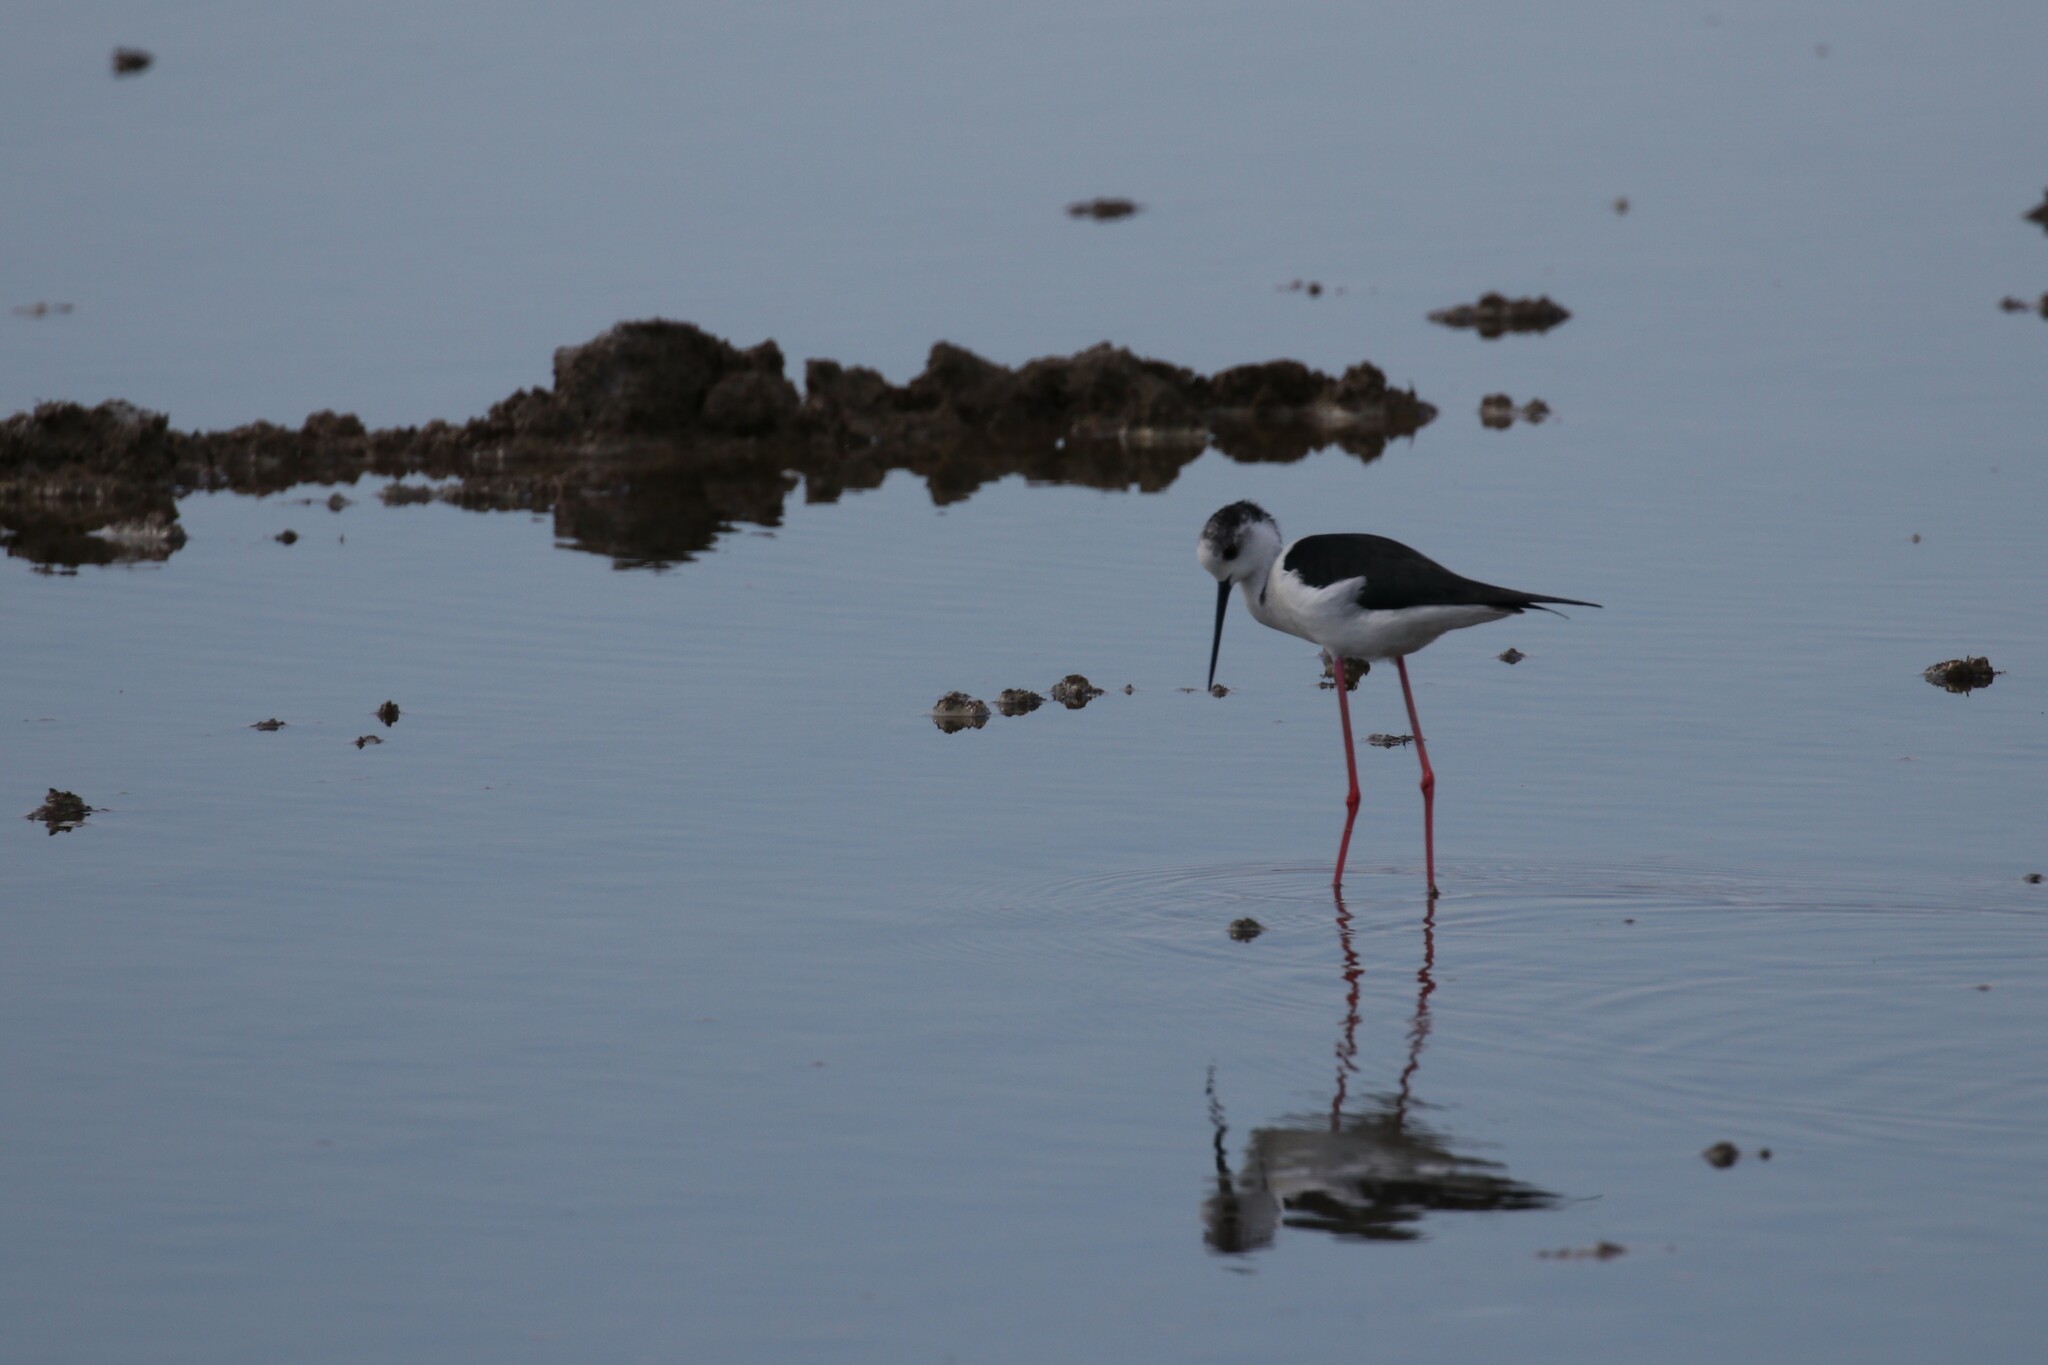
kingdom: Animalia
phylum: Chordata
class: Aves
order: Charadriiformes
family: Recurvirostridae
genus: Himantopus
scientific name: Himantopus himantopus
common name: Black-winged stilt
